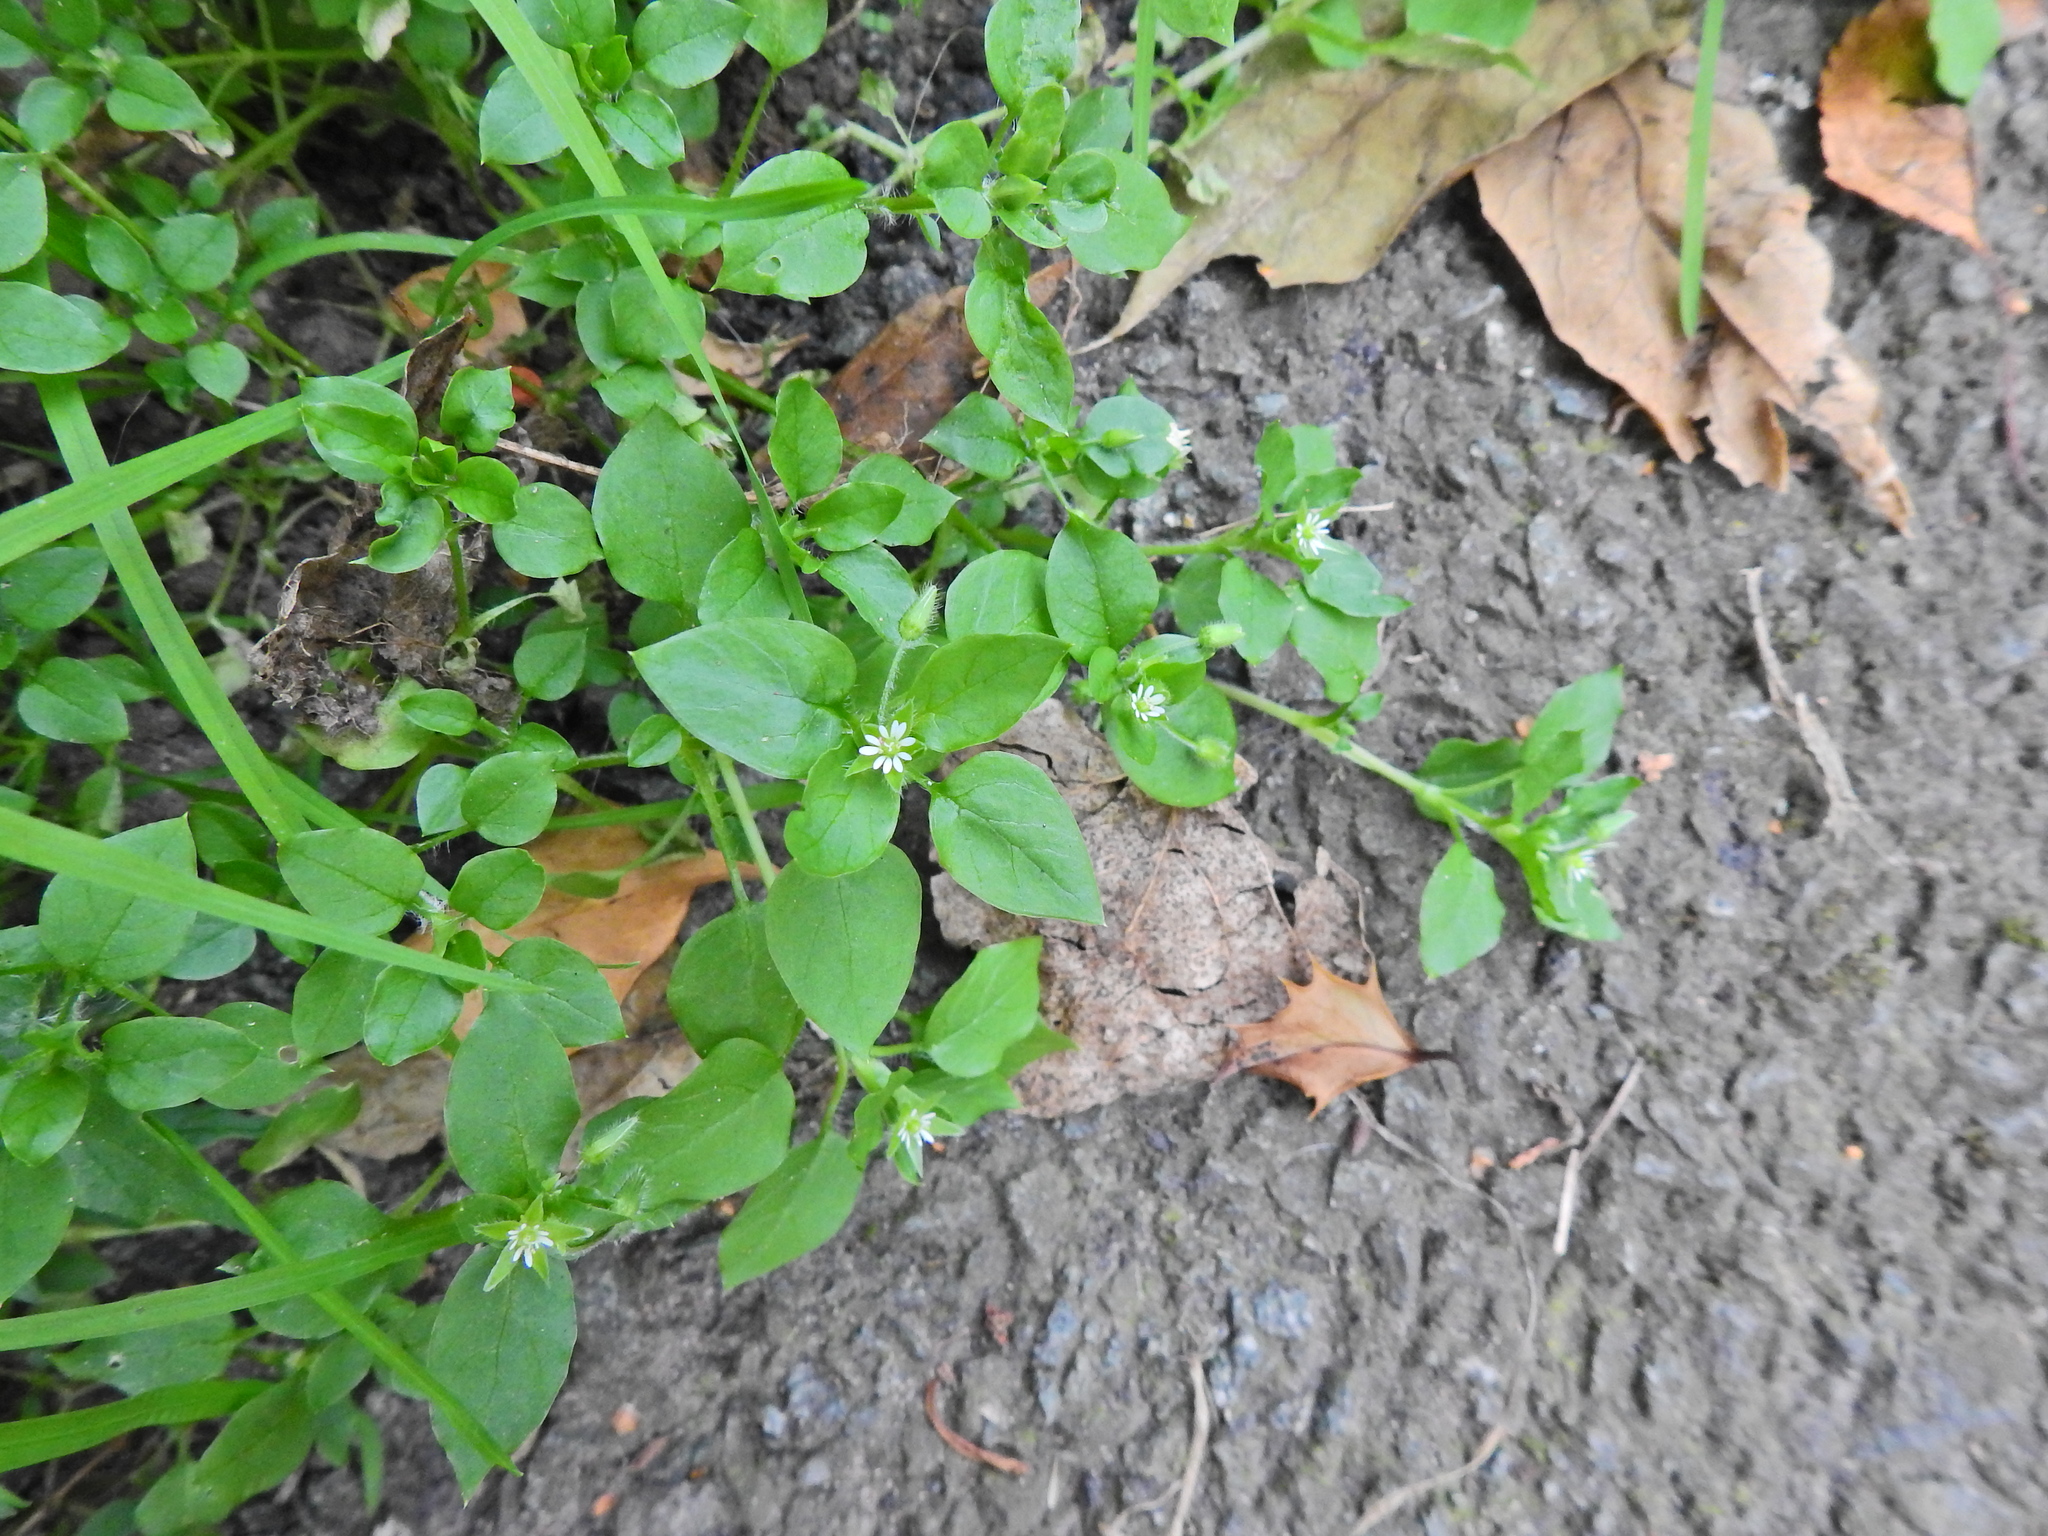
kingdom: Plantae
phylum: Tracheophyta
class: Magnoliopsida
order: Caryophyllales
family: Caryophyllaceae
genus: Stellaria
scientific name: Stellaria media
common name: Common chickweed
